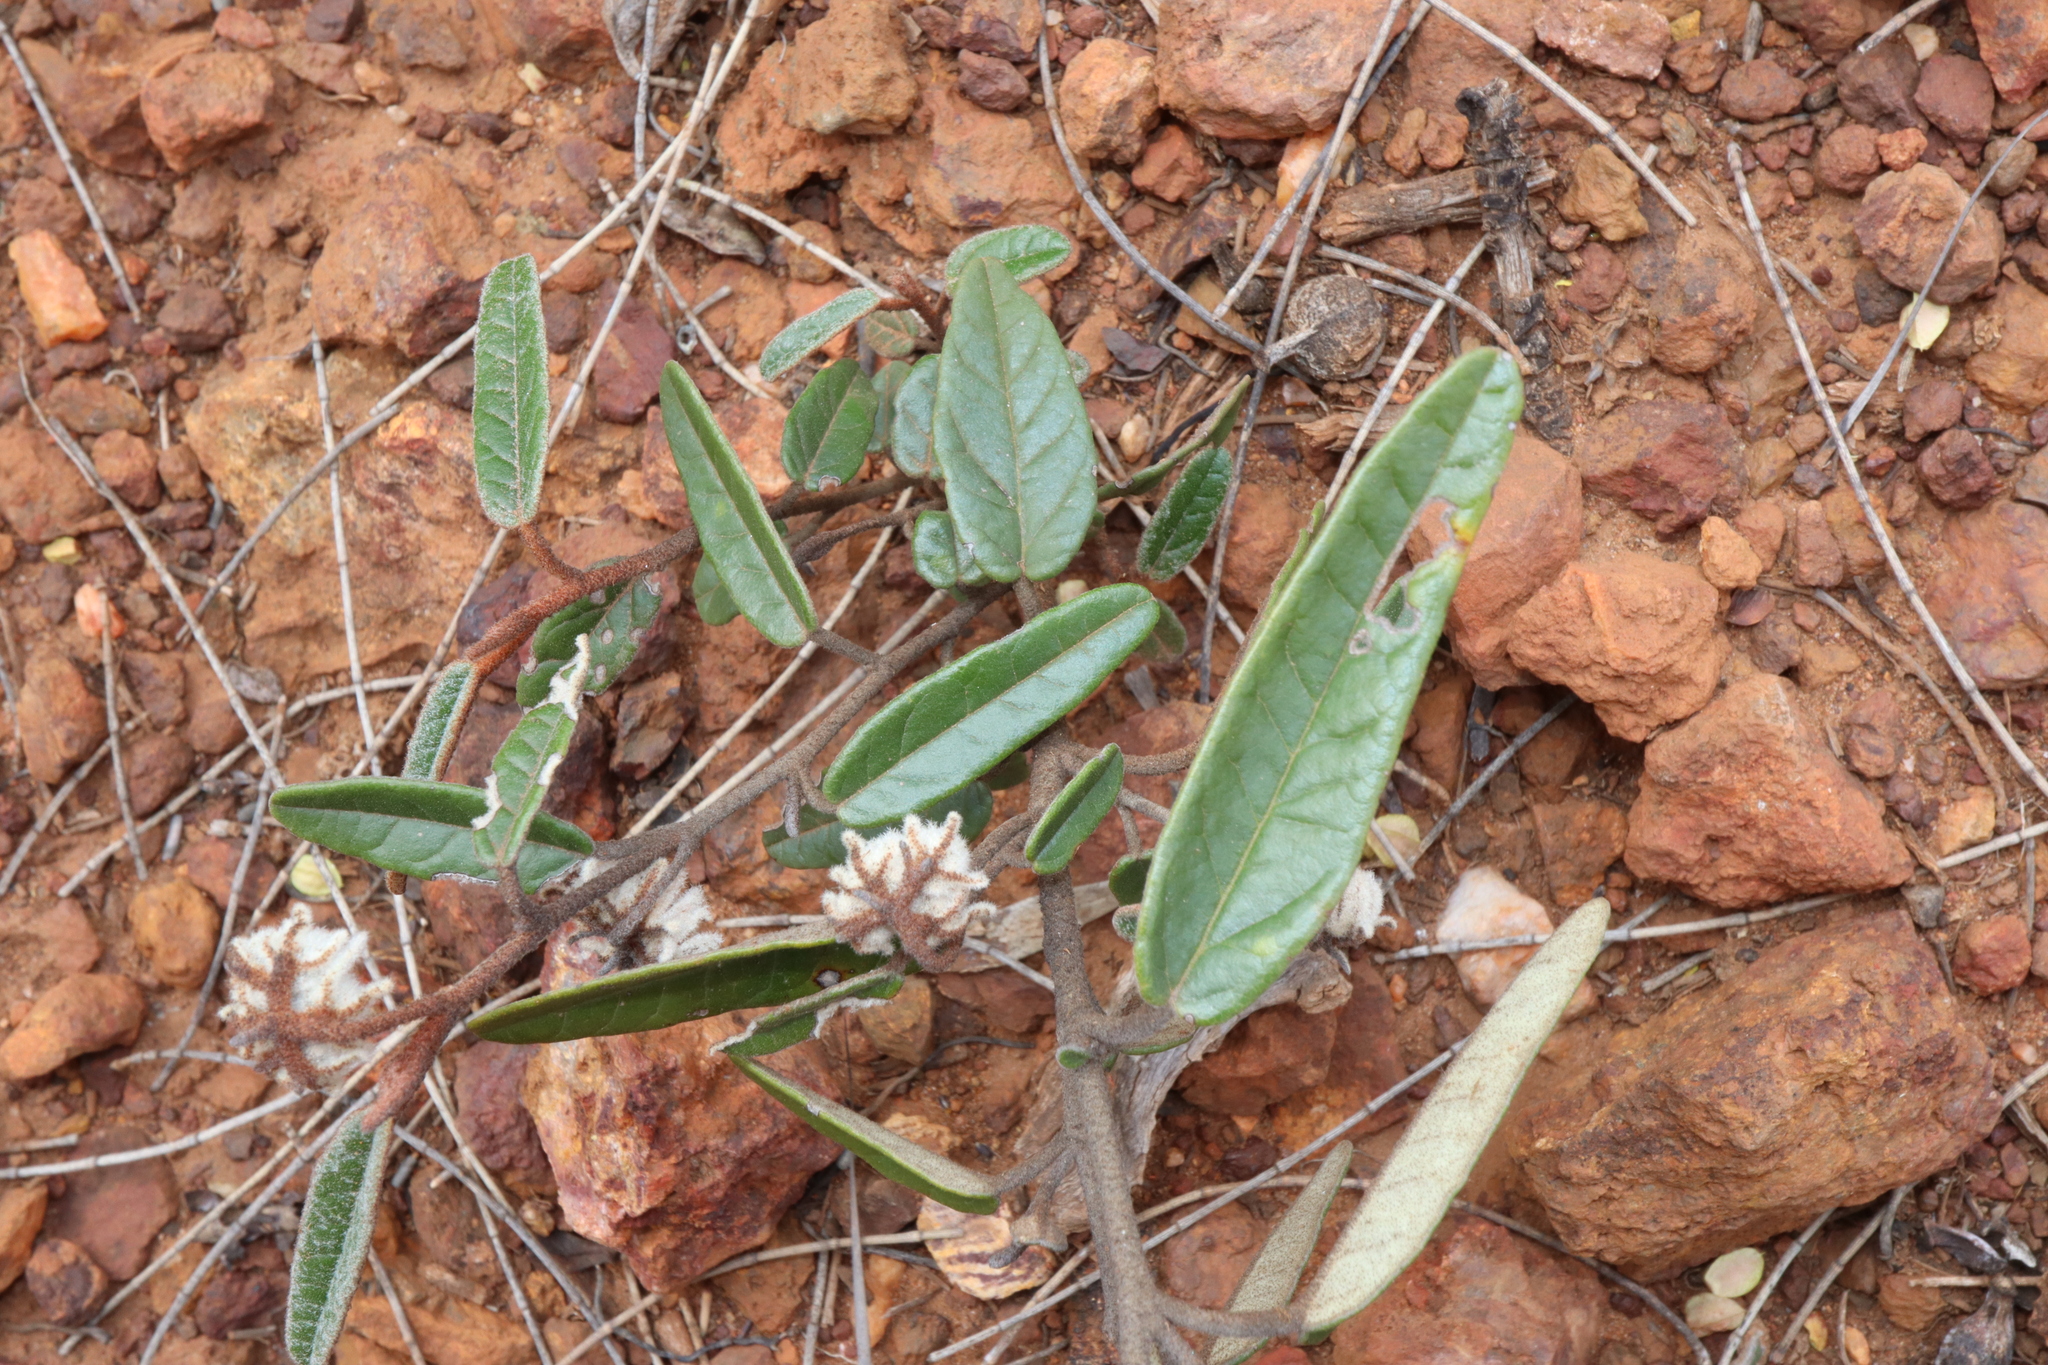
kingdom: Plantae
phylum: Tracheophyta
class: Magnoliopsida
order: Malvales
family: Malvaceae
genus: Lasiopetalum
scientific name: Lasiopetalum compactum
